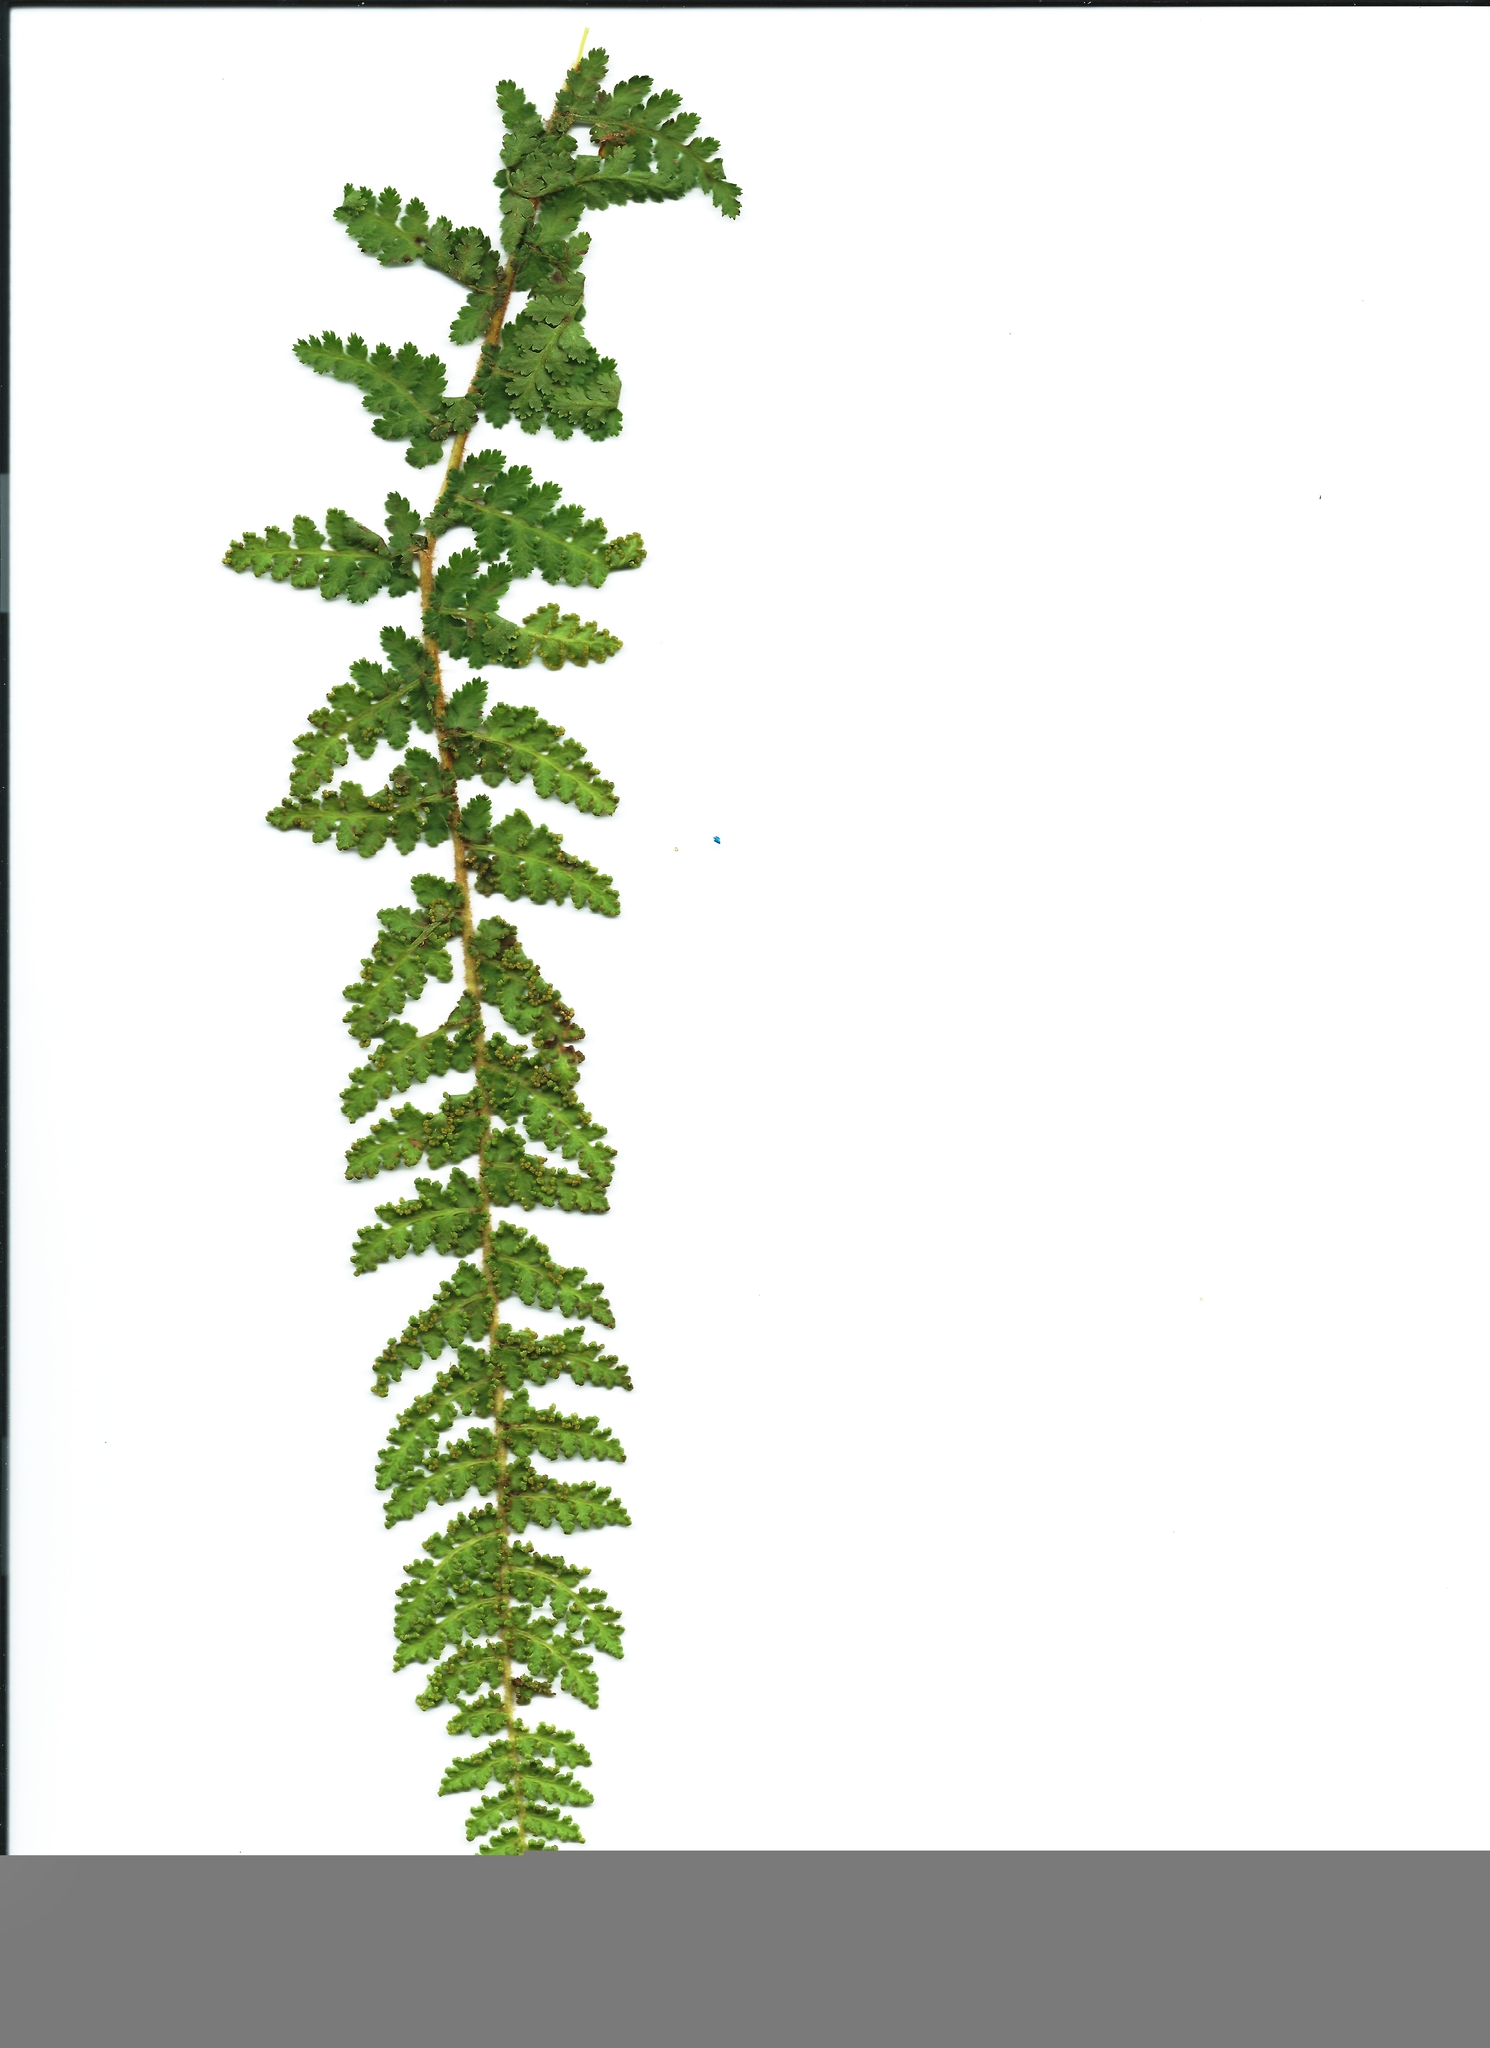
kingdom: Plantae
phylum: Tracheophyta
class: Polypodiopsida
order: Schizaeales
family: Anemiaceae
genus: Anemia
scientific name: Anemia nudiuscula
